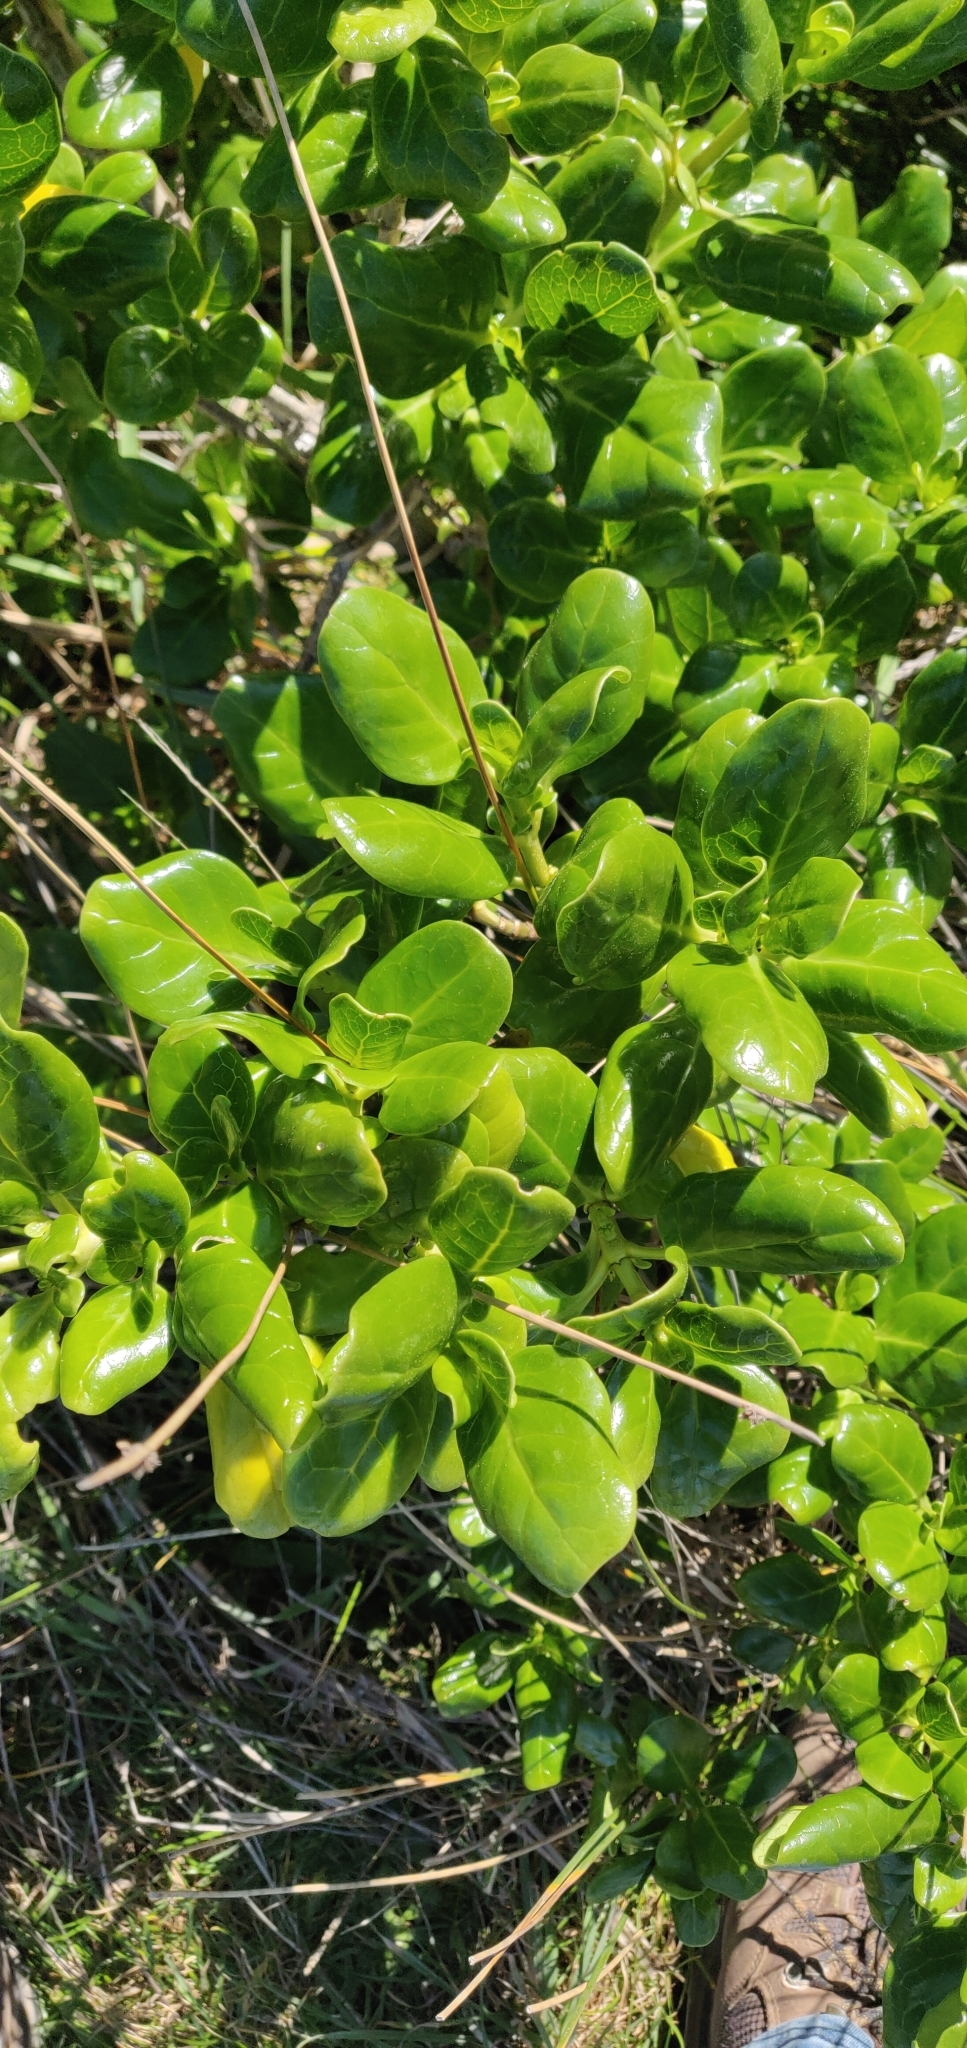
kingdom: Plantae
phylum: Tracheophyta
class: Magnoliopsida
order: Gentianales
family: Rubiaceae
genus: Coprosma
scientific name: Coprosma repens
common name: Tree bedstraw
